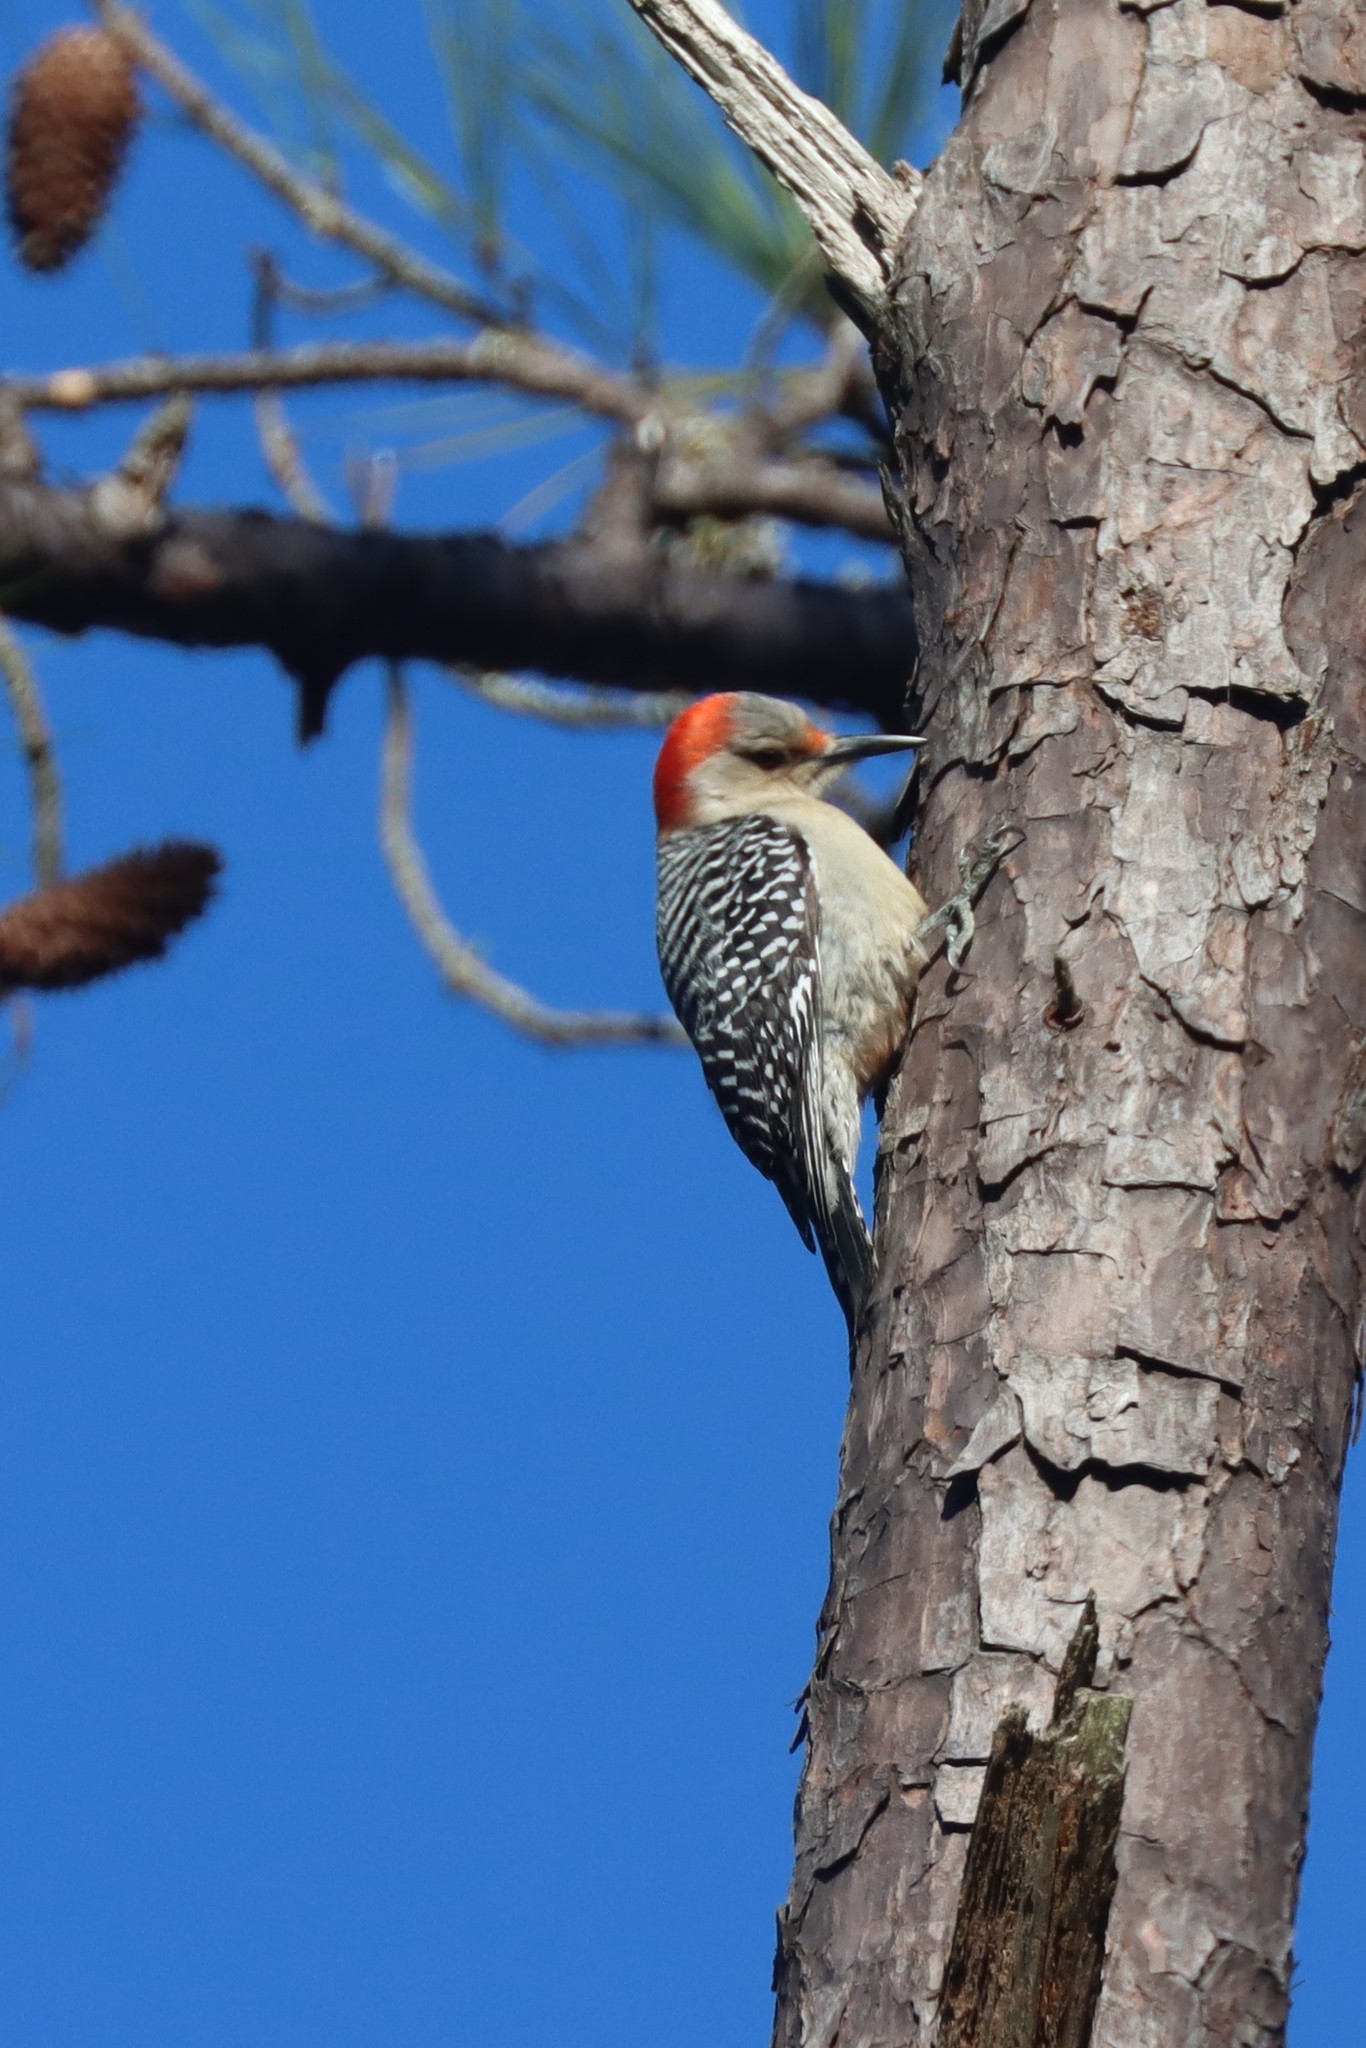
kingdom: Animalia
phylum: Chordata
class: Aves
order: Piciformes
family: Picidae
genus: Melanerpes
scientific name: Melanerpes carolinus
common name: Red-bellied woodpecker
